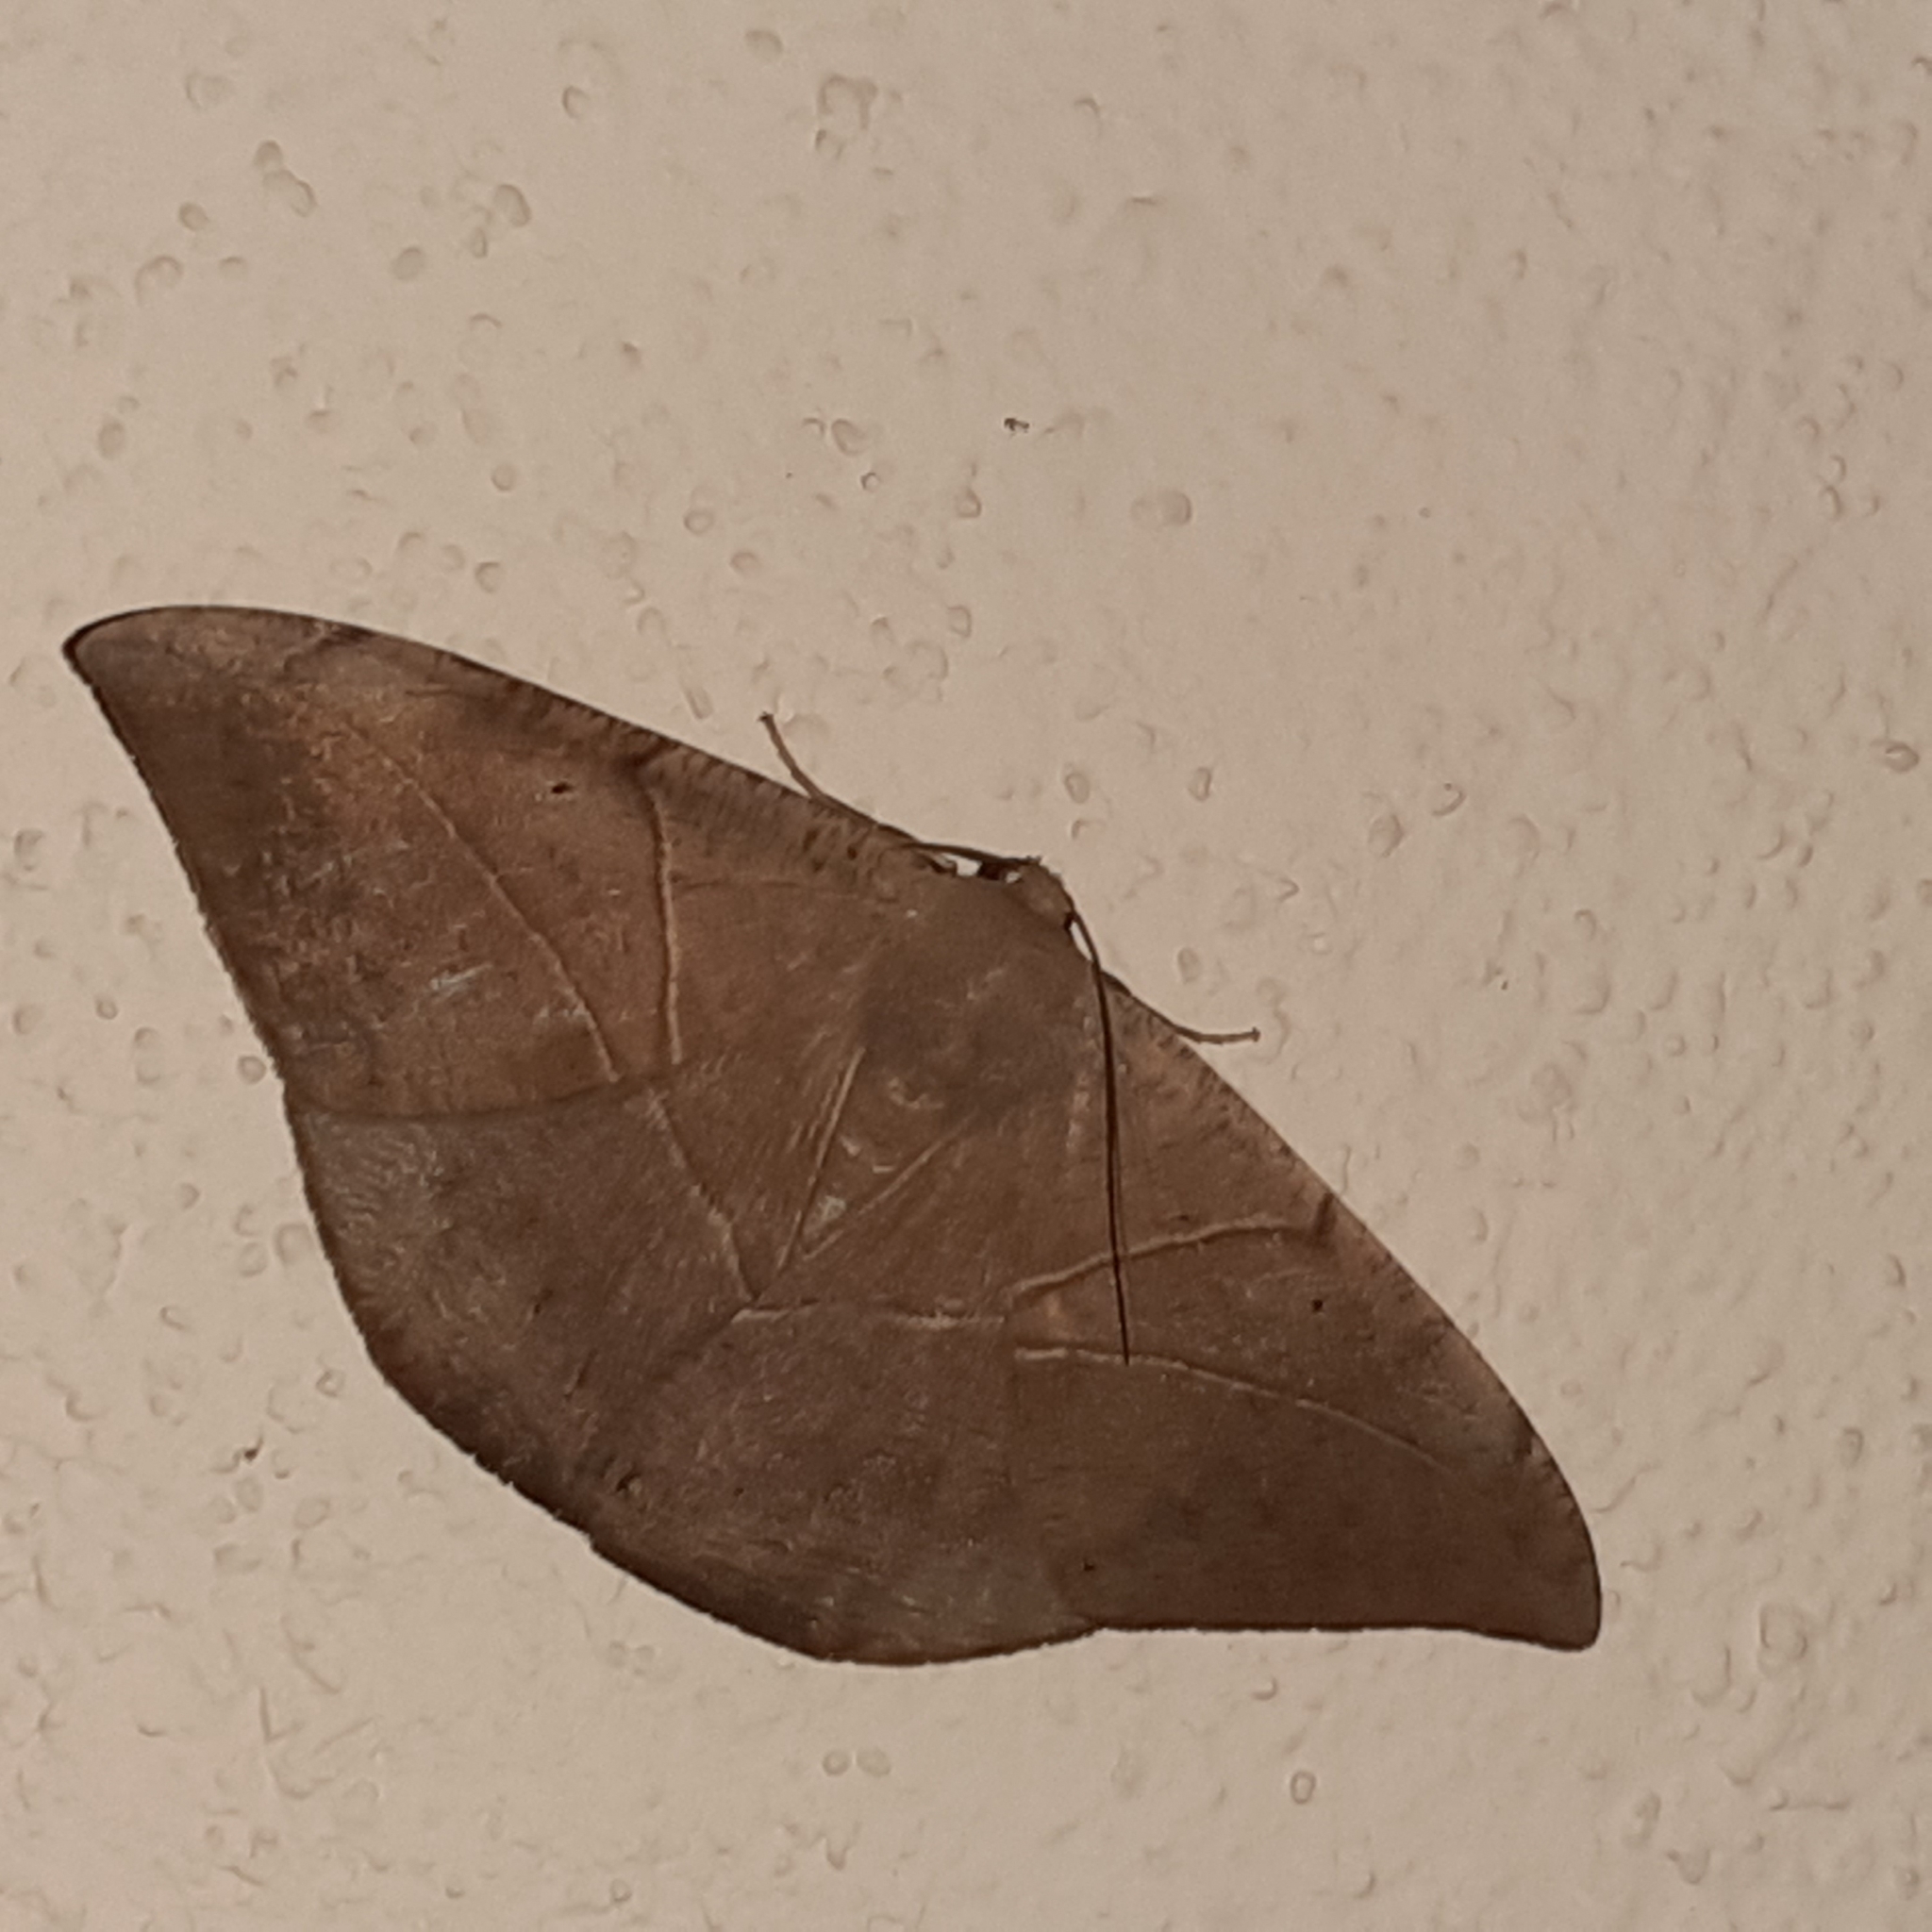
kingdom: Animalia
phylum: Arthropoda
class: Insecta
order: Lepidoptera
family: Geometridae
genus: Oxydia
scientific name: Oxydia trychiata
